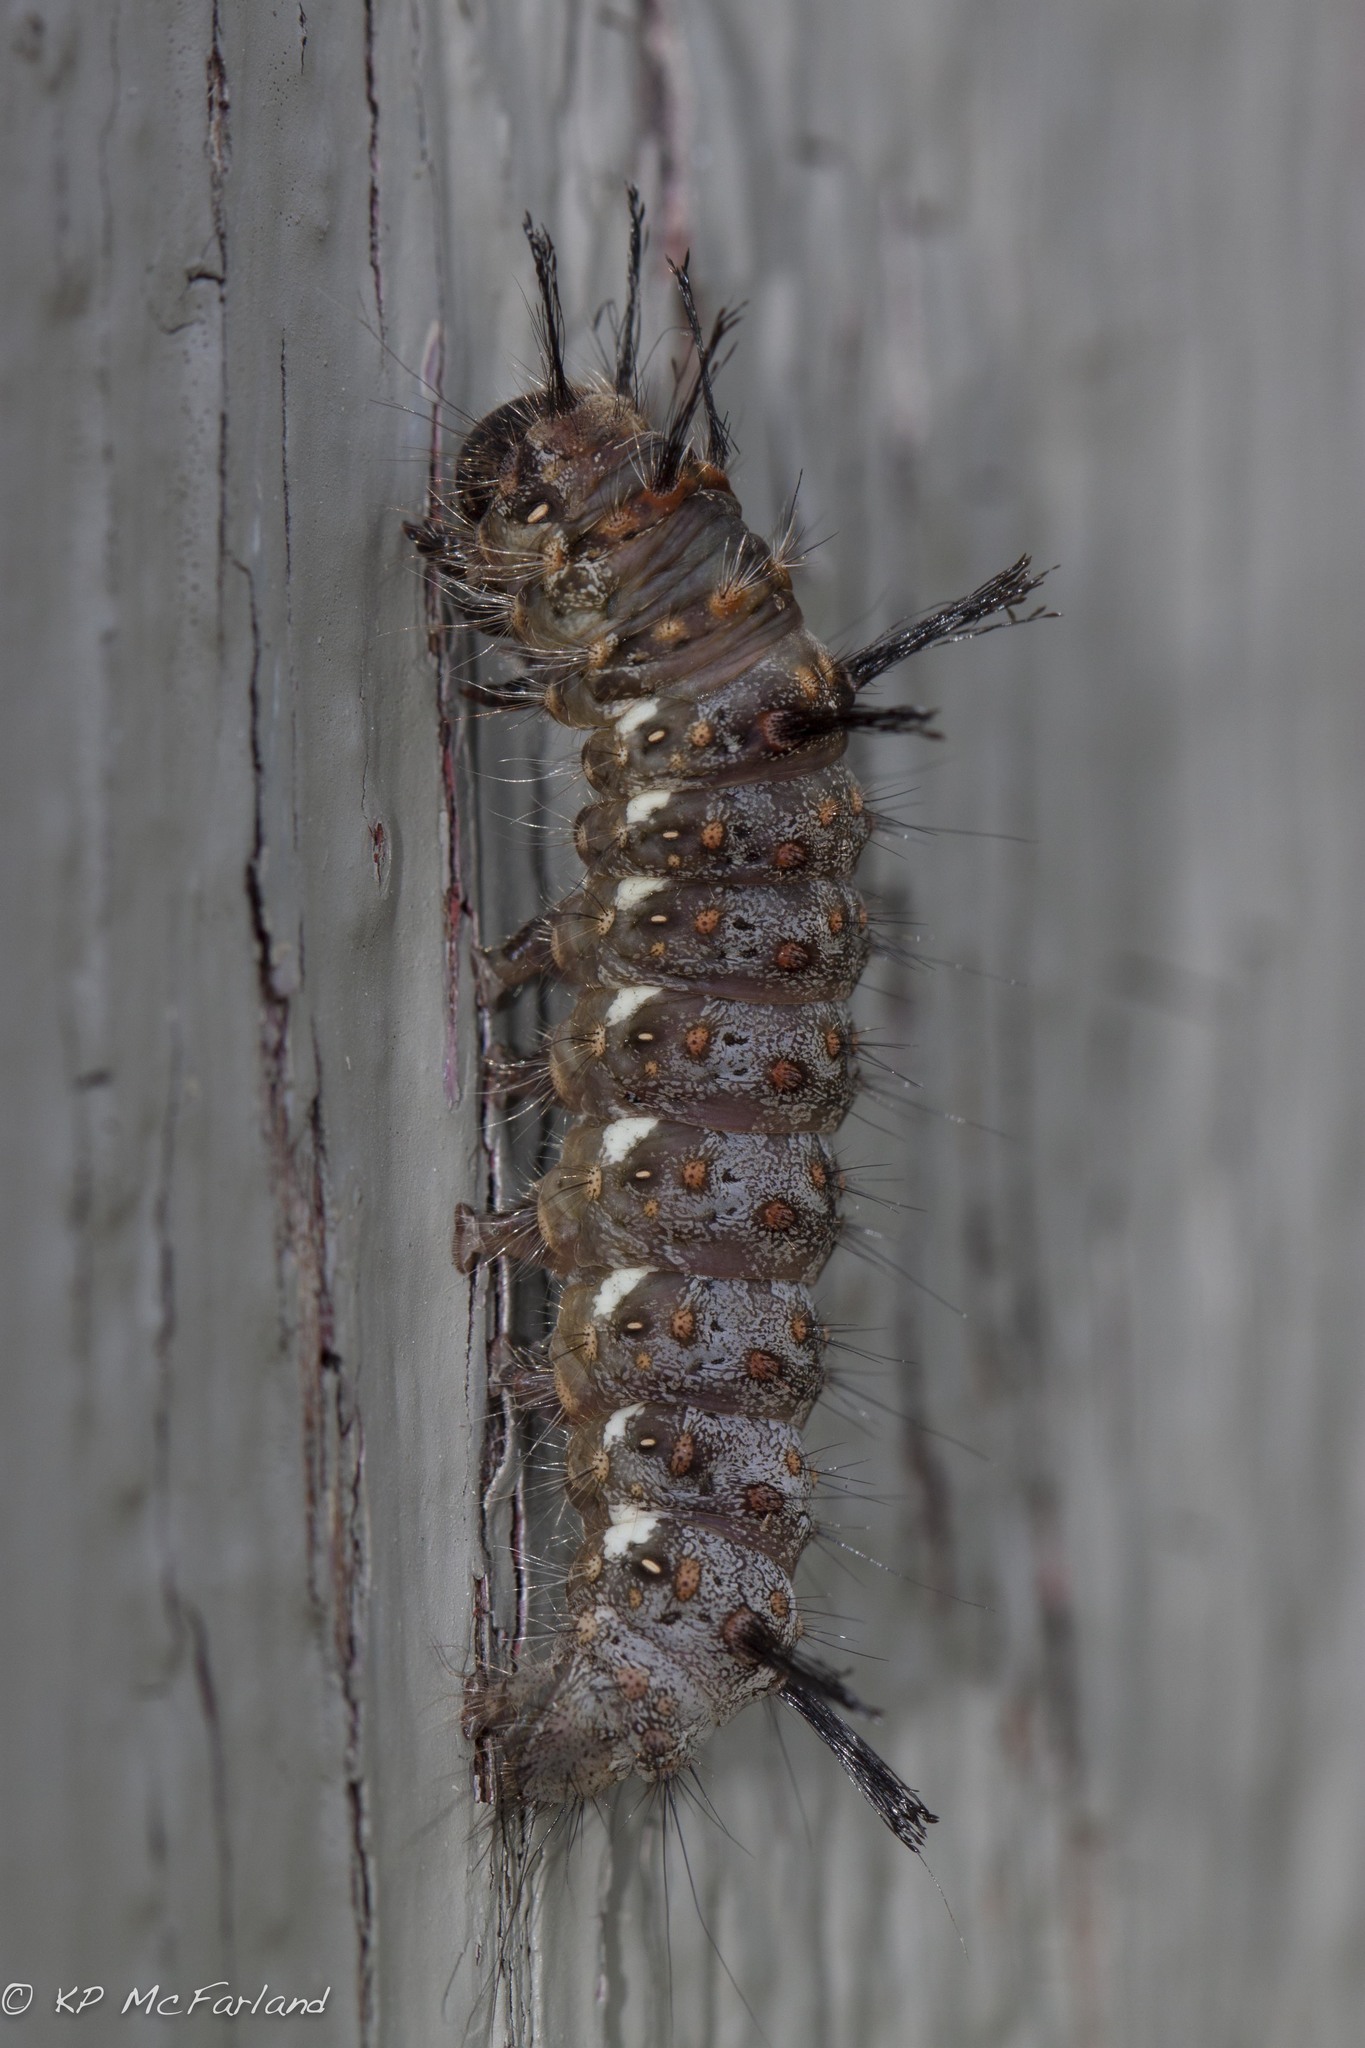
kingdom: Animalia
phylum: Arthropoda
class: Insecta
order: Lepidoptera
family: Noctuidae
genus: Panthea
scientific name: Panthea furcilla
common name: Eastern panthea moth
